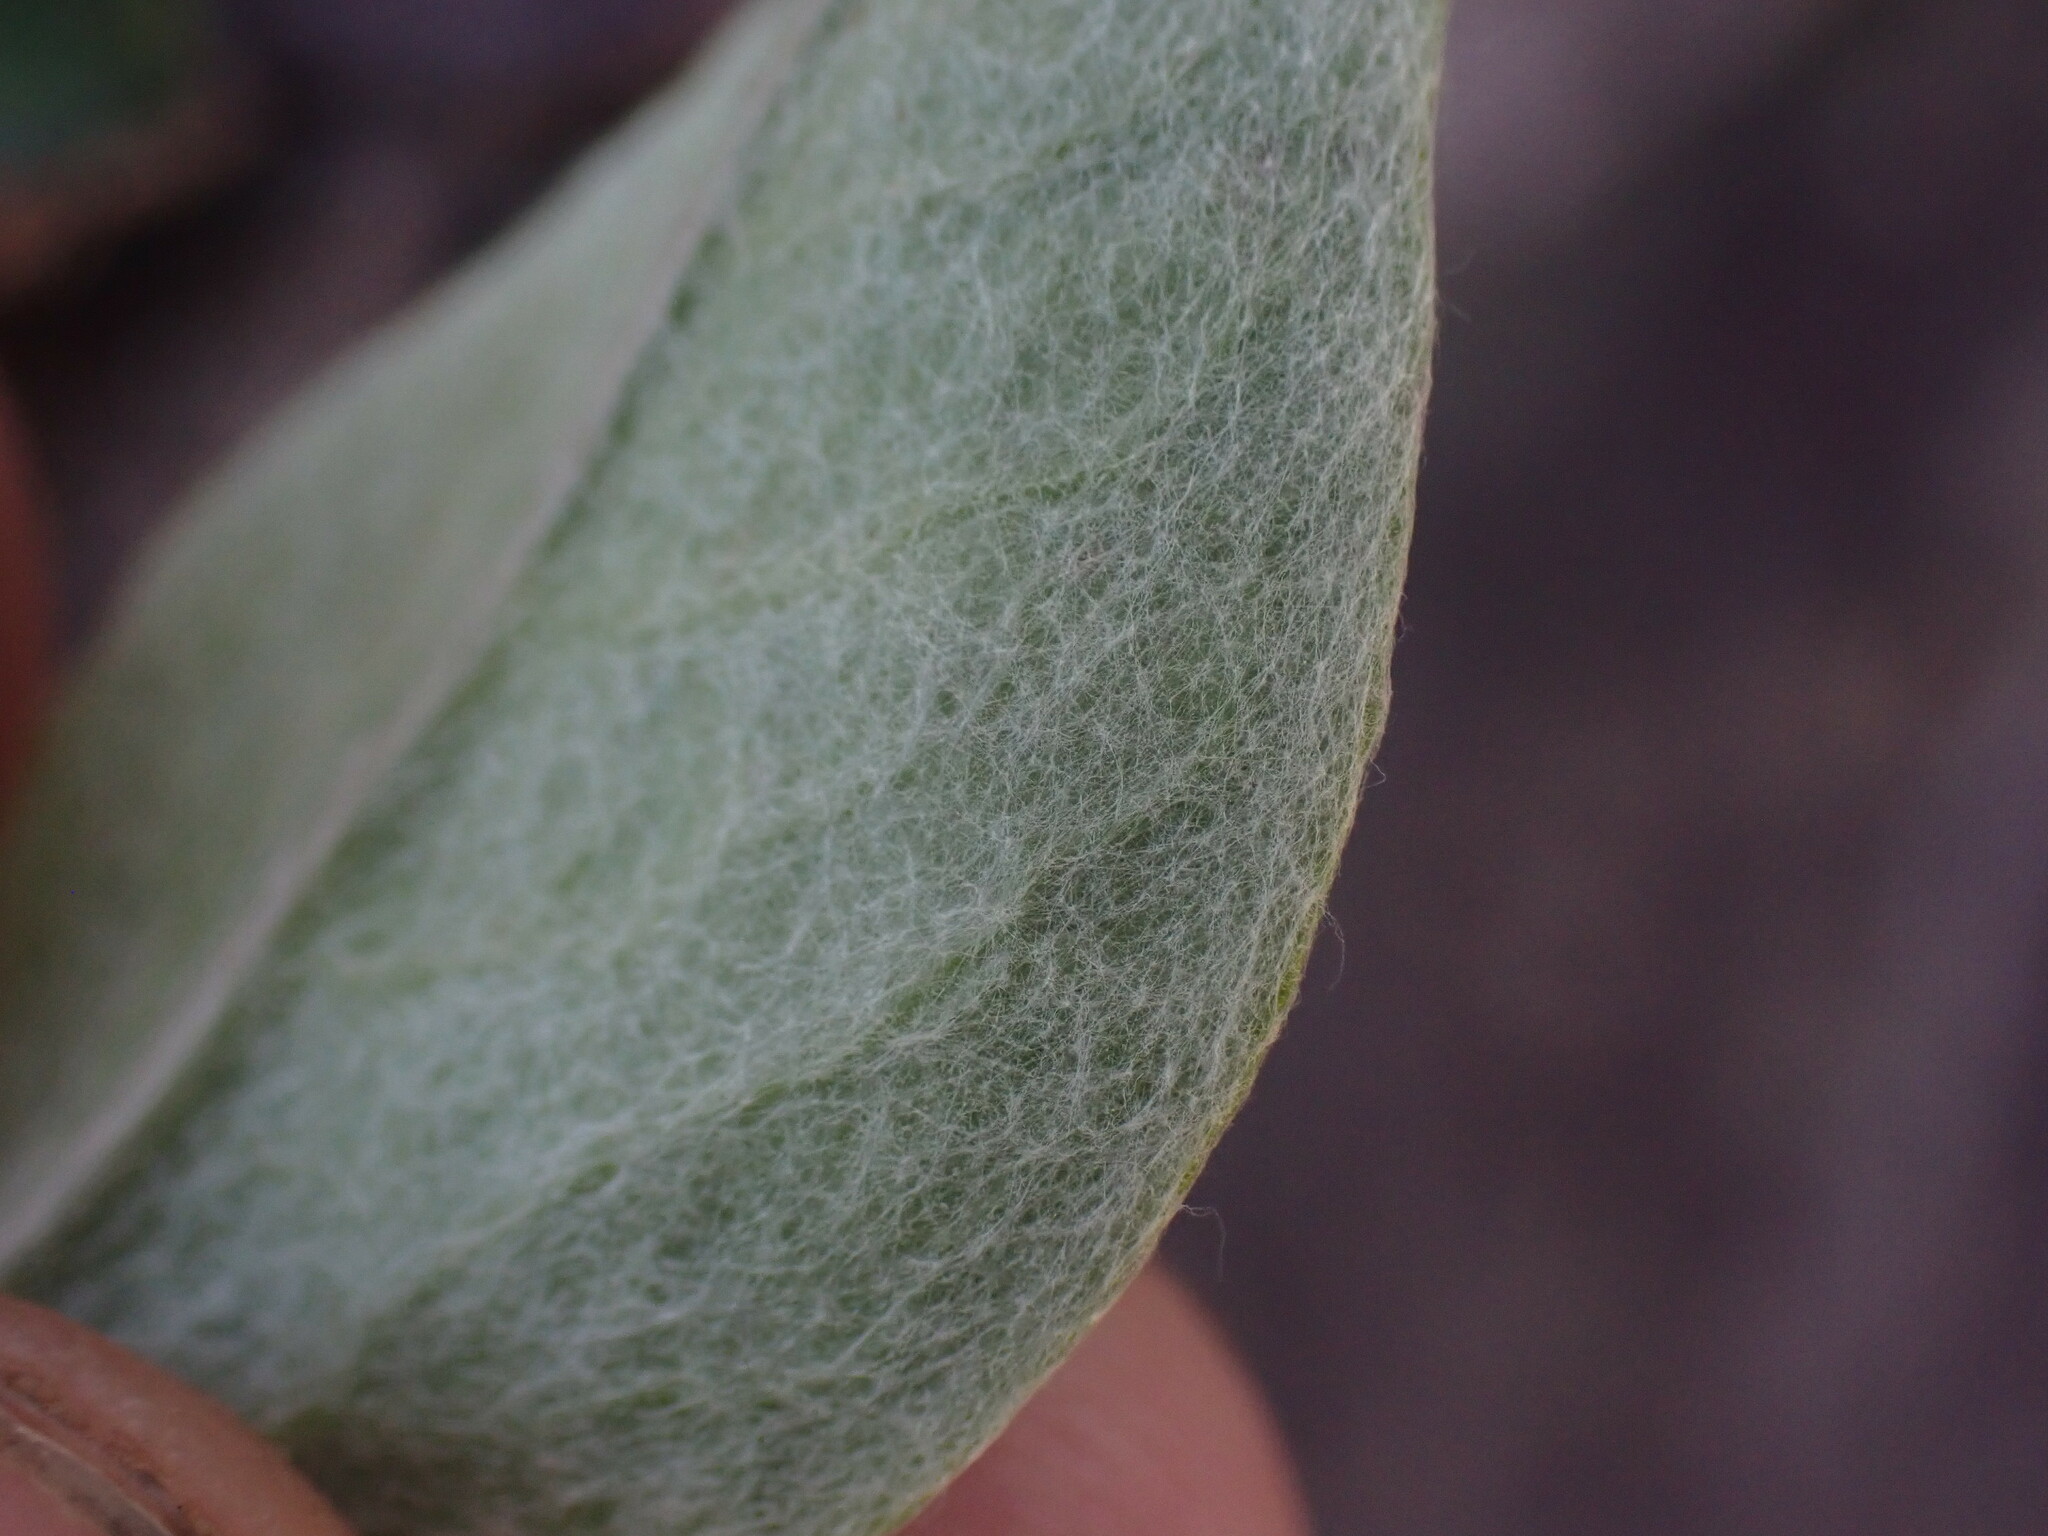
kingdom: Plantae
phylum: Tracheophyta
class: Magnoliopsida
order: Asterales
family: Asteraceae
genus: Antennaria
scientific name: Antennaria racemosa
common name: Racemose pussytoes
